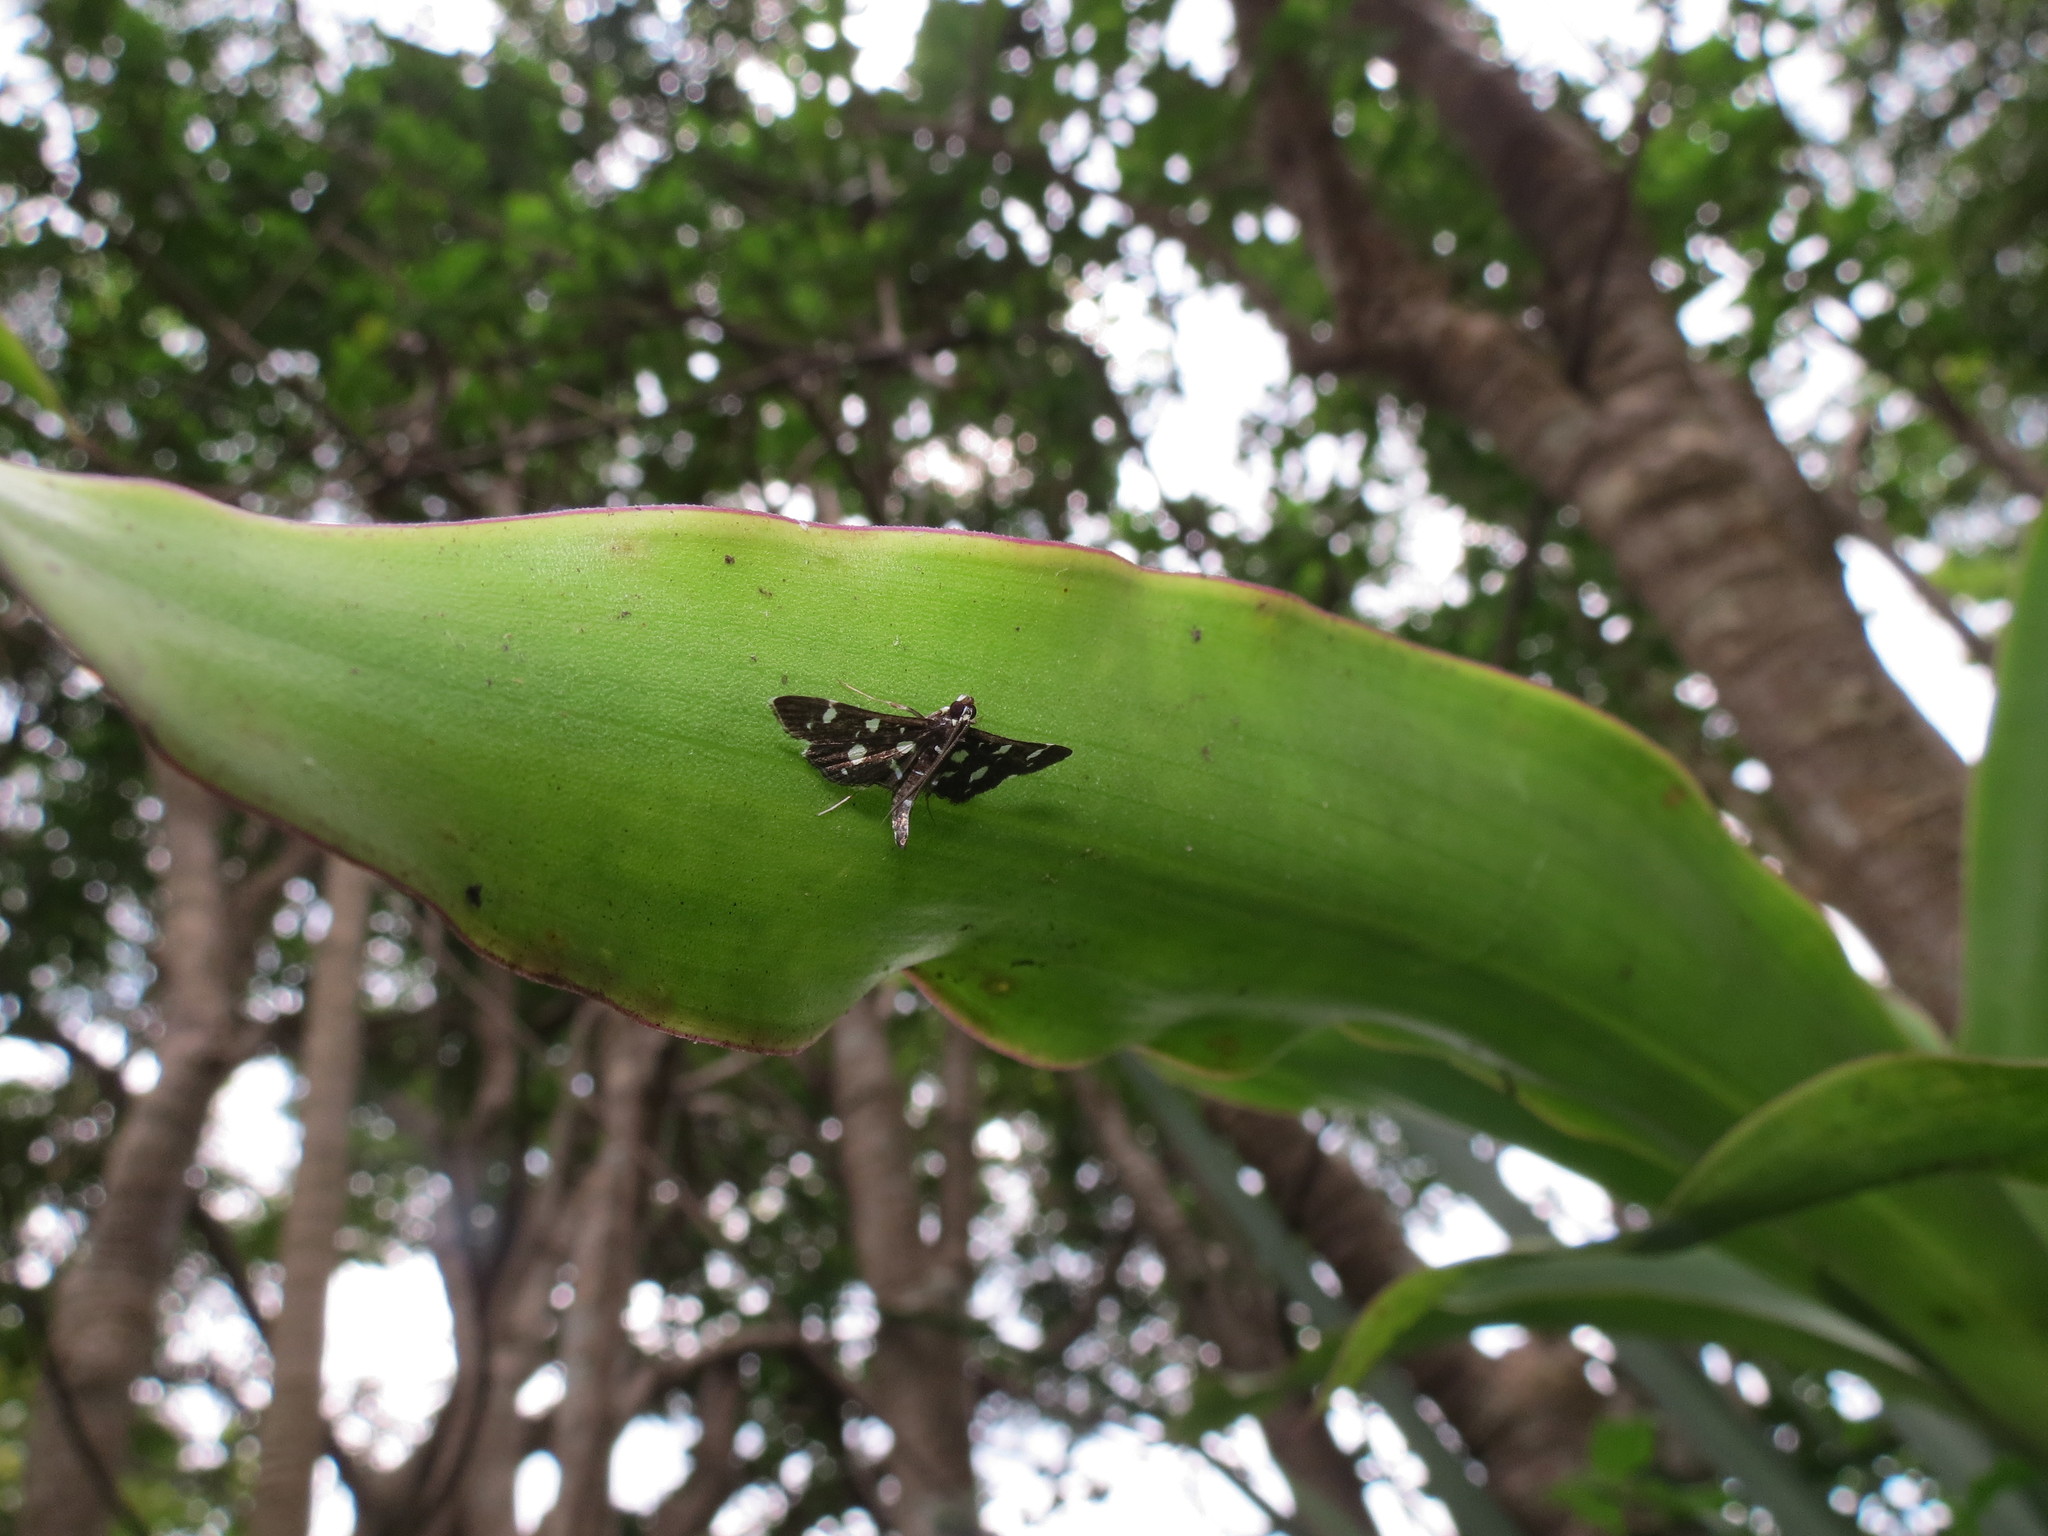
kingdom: Animalia
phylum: Arthropoda
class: Insecta
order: Lepidoptera
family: Crambidae
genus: Bocchoris
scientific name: Bocchoris inspersalis
